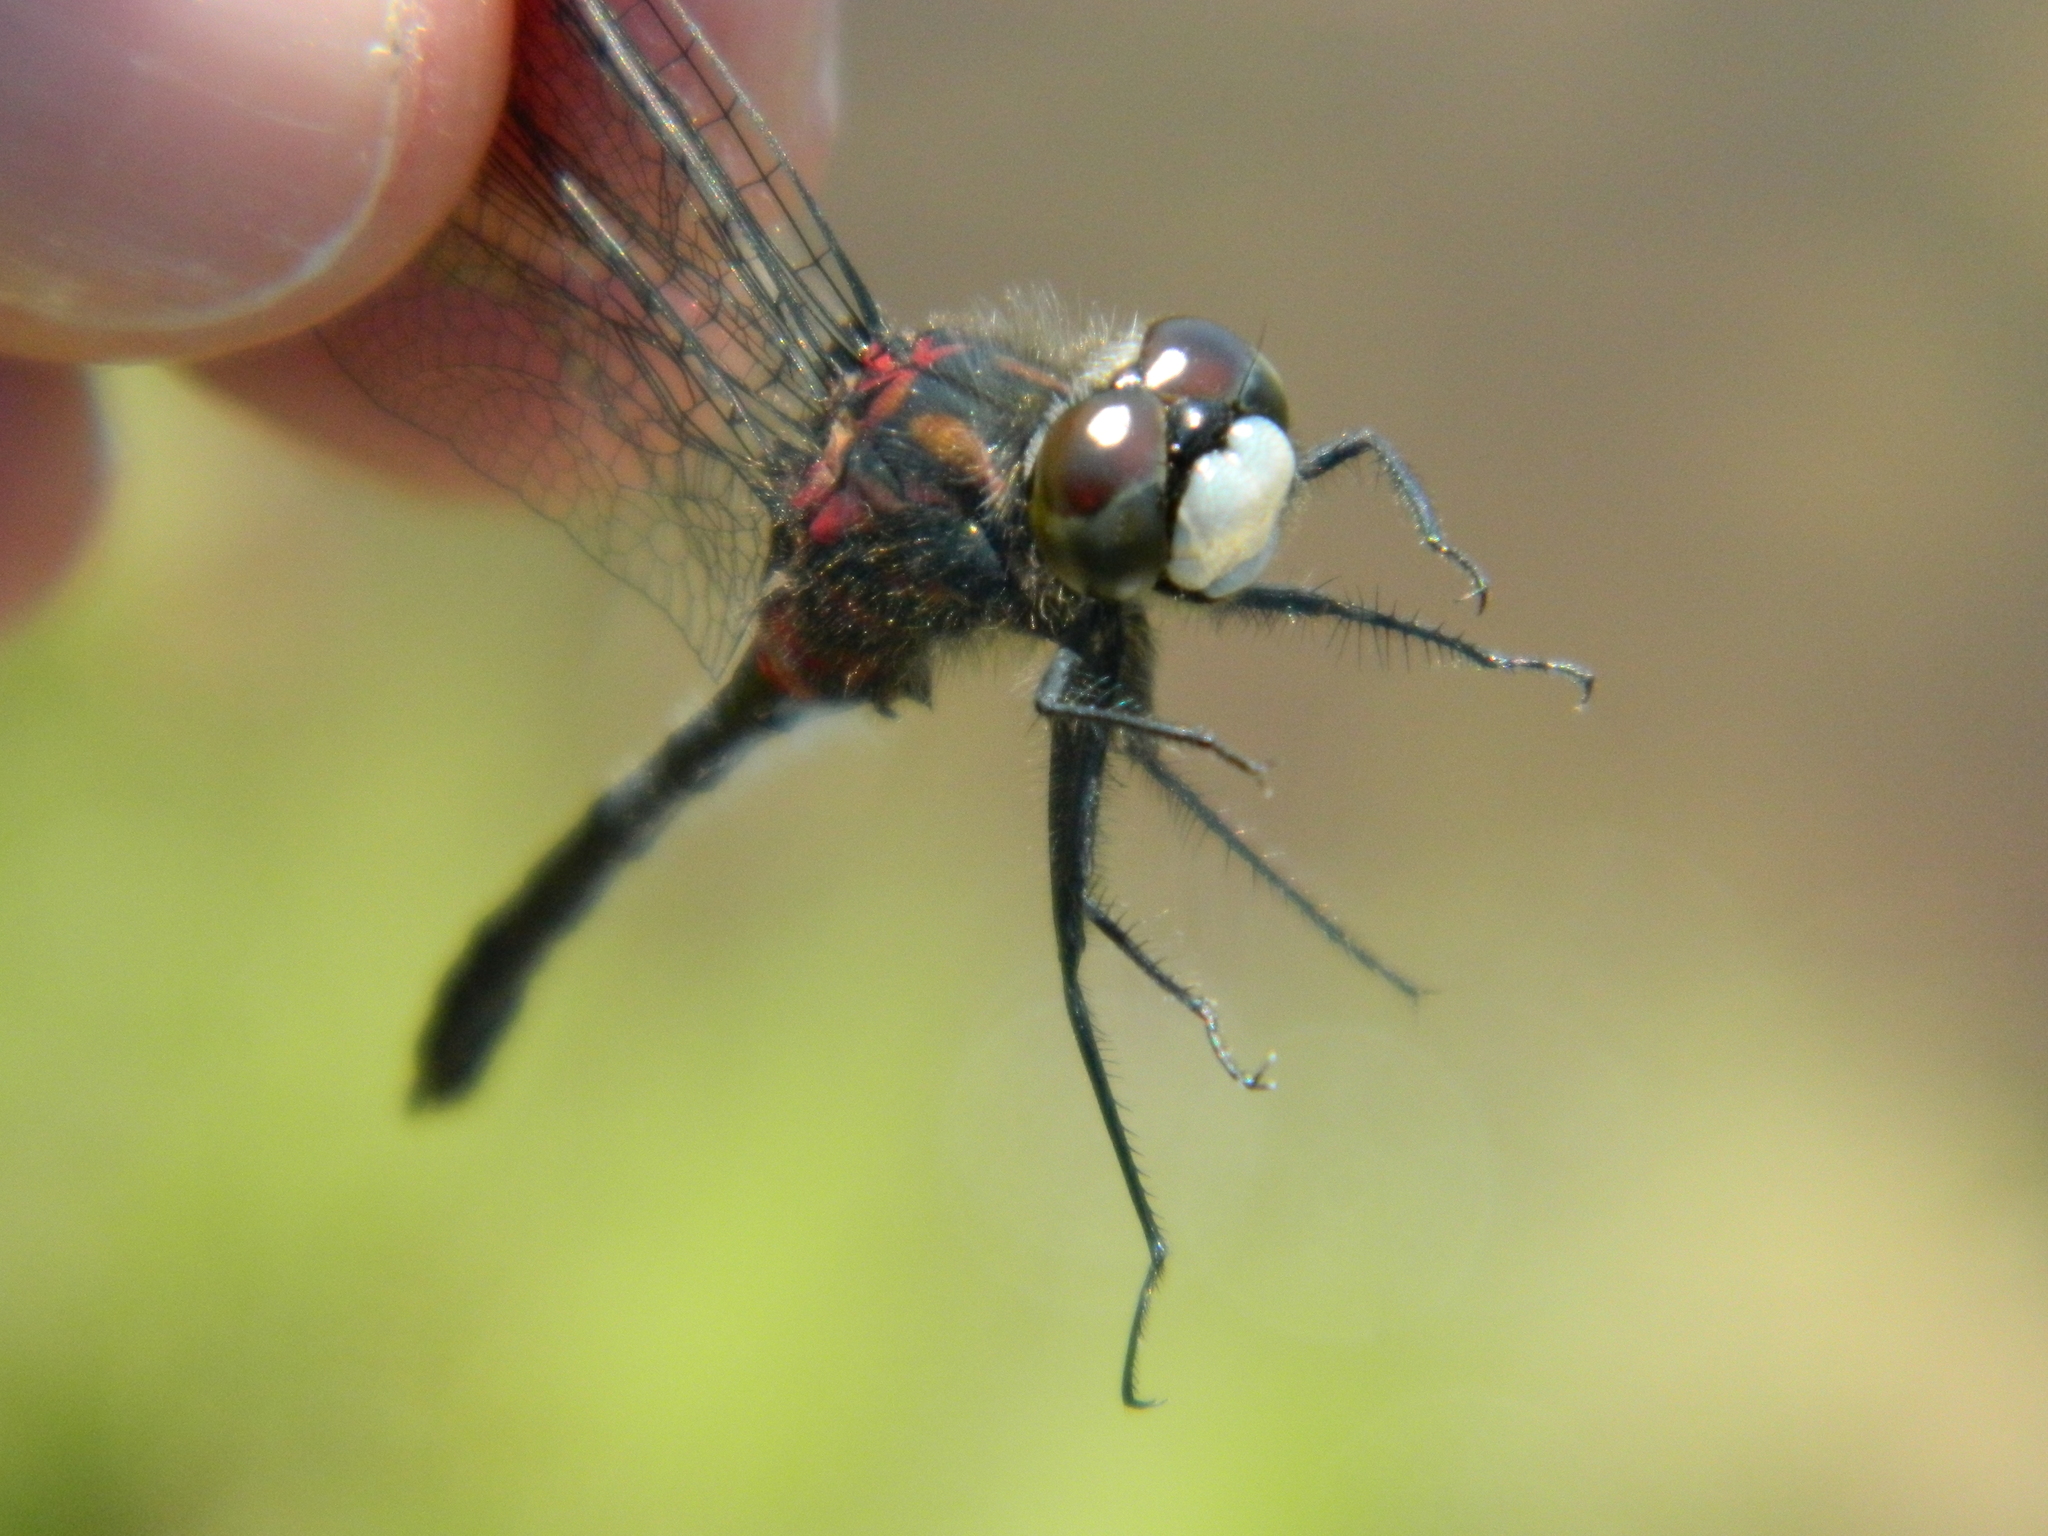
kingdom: Animalia
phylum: Arthropoda
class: Insecta
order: Odonata
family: Libellulidae
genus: Leucorrhinia
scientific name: Leucorrhinia glacialis
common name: Crimson-ringed whiteface
